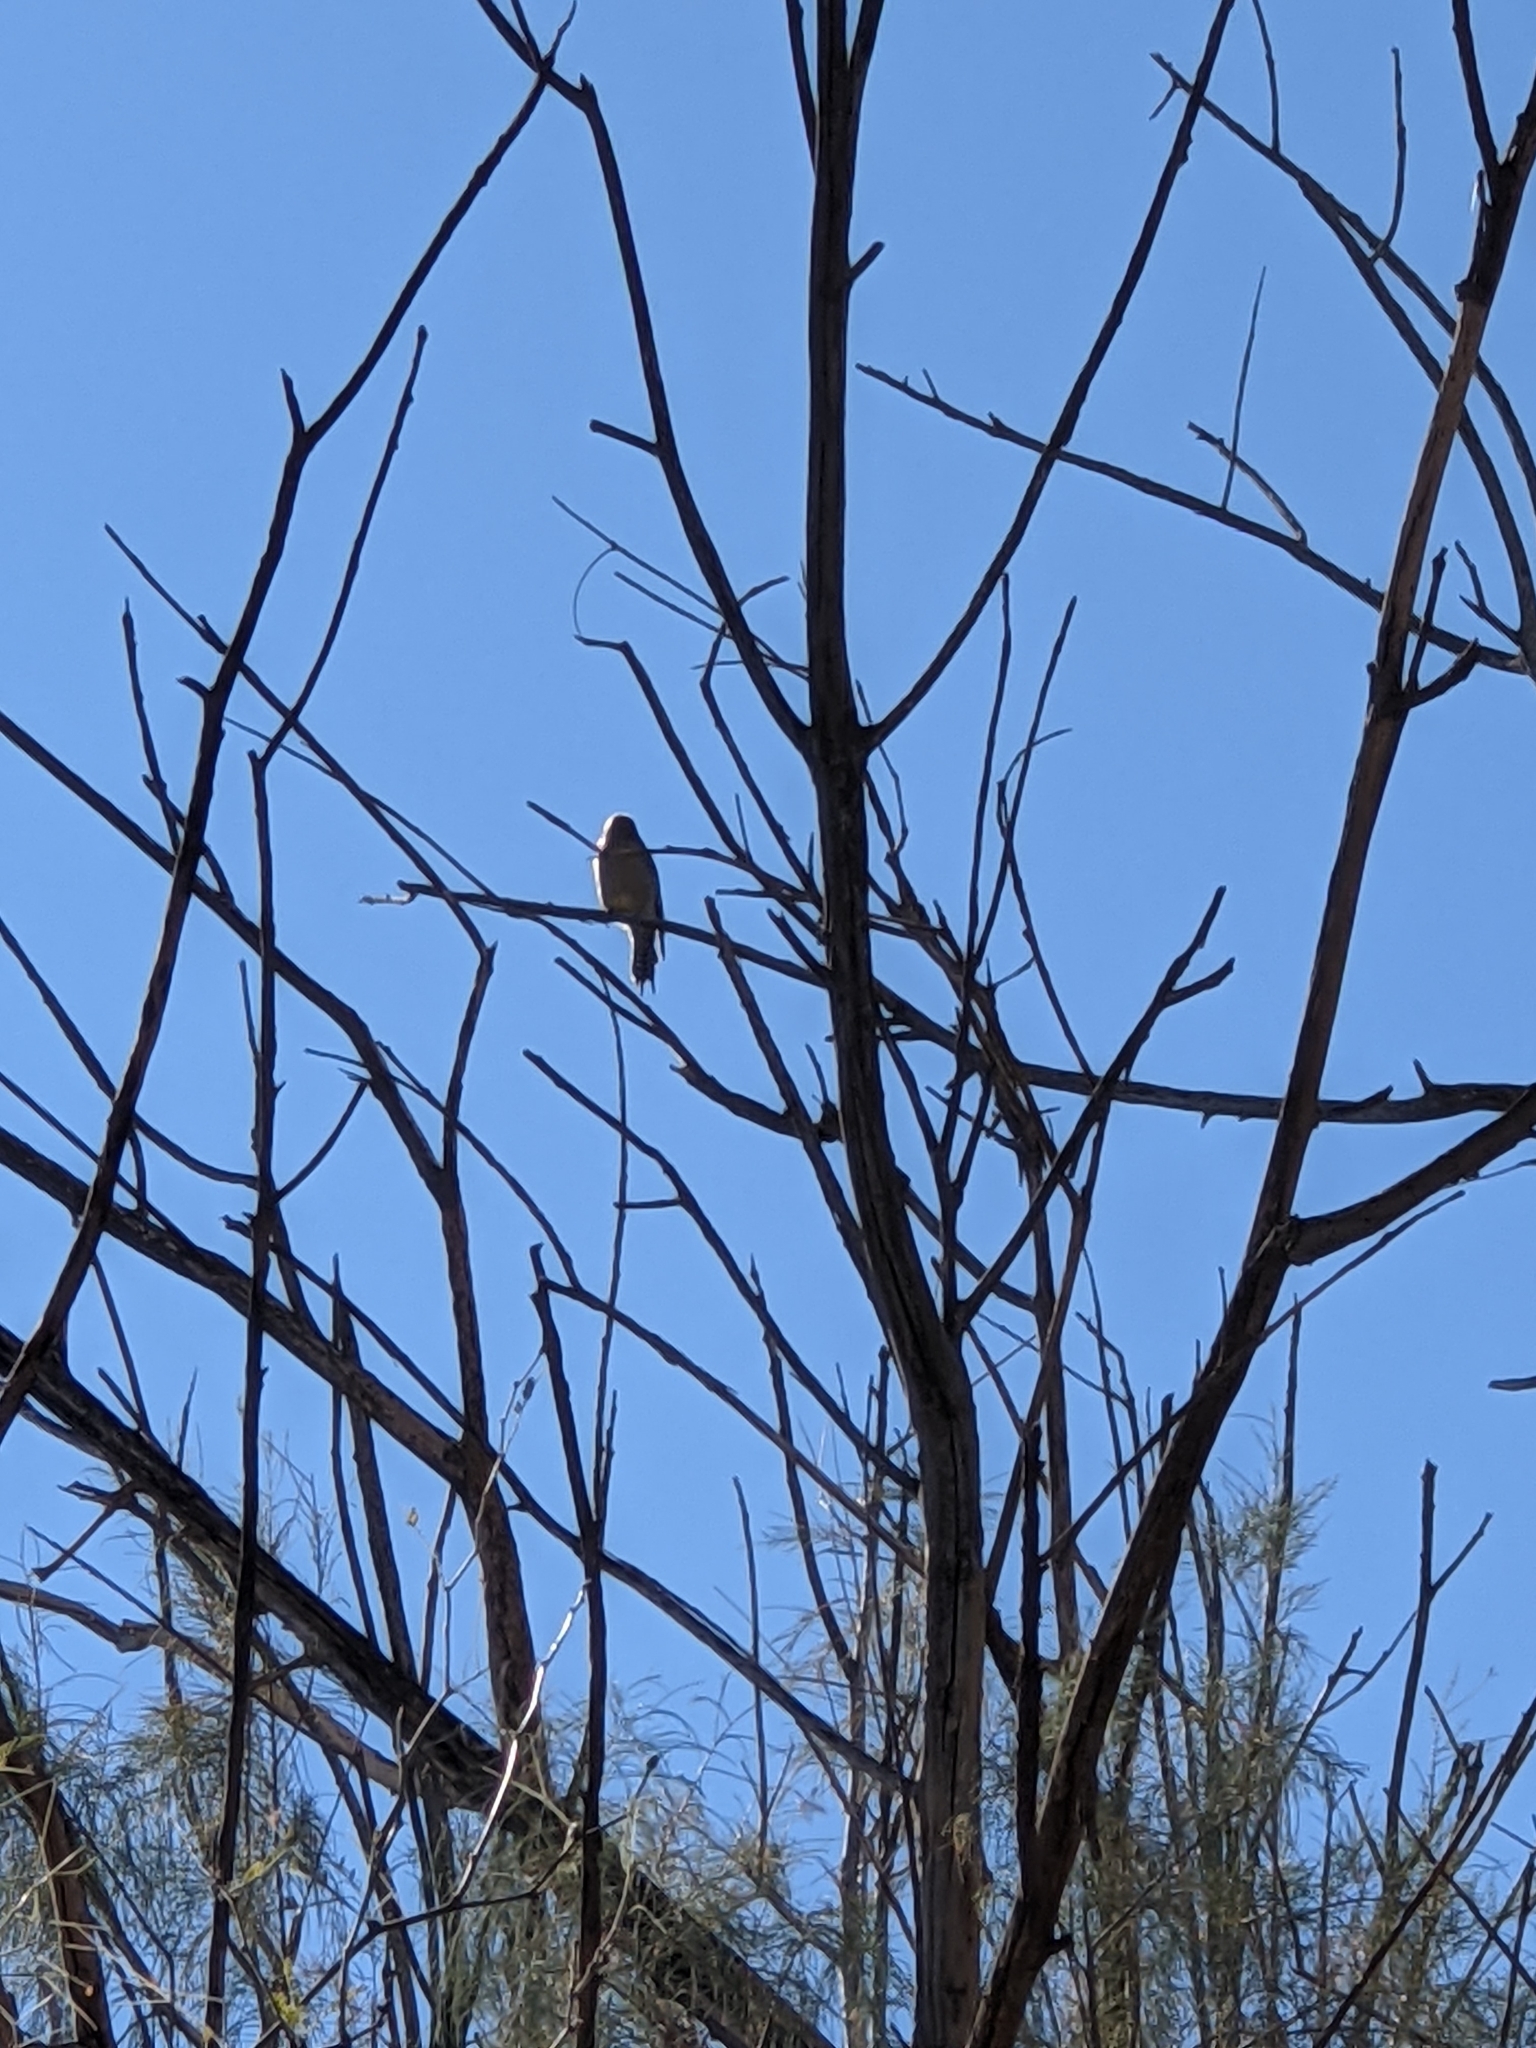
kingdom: Animalia
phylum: Chordata
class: Aves
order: Piciformes
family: Picidae
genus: Melanerpes
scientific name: Melanerpes uropygialis
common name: Gila woodpecker
